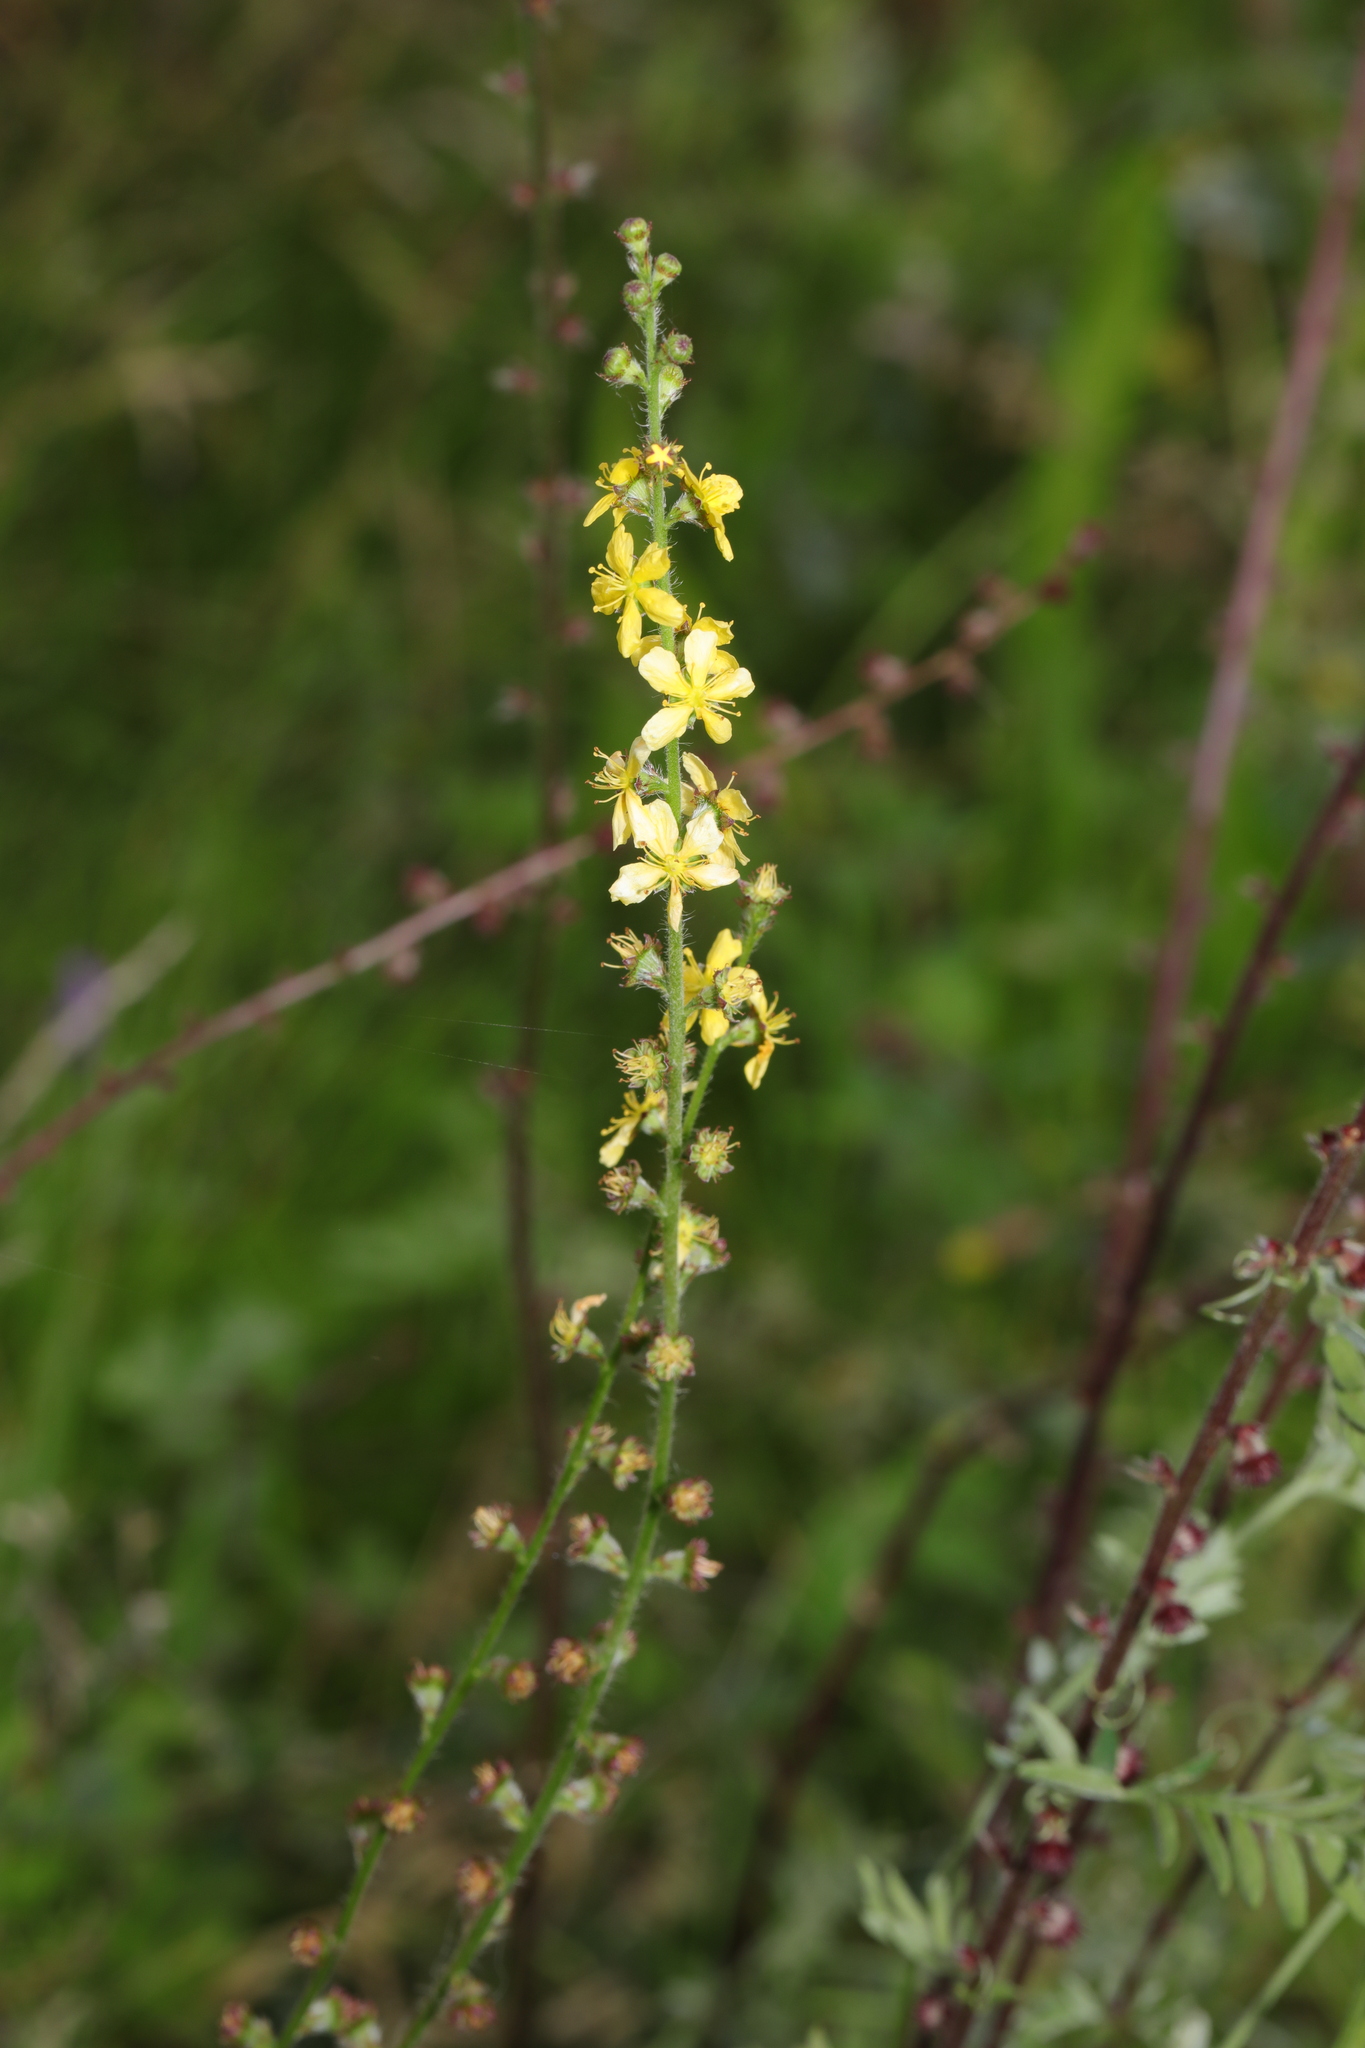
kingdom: Plantae
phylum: Tracheophyta
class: Magnoliopsida
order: Rosales
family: Rosaceae
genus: Agrimonia
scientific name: Agrimonia eupatoria
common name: Agrimony
